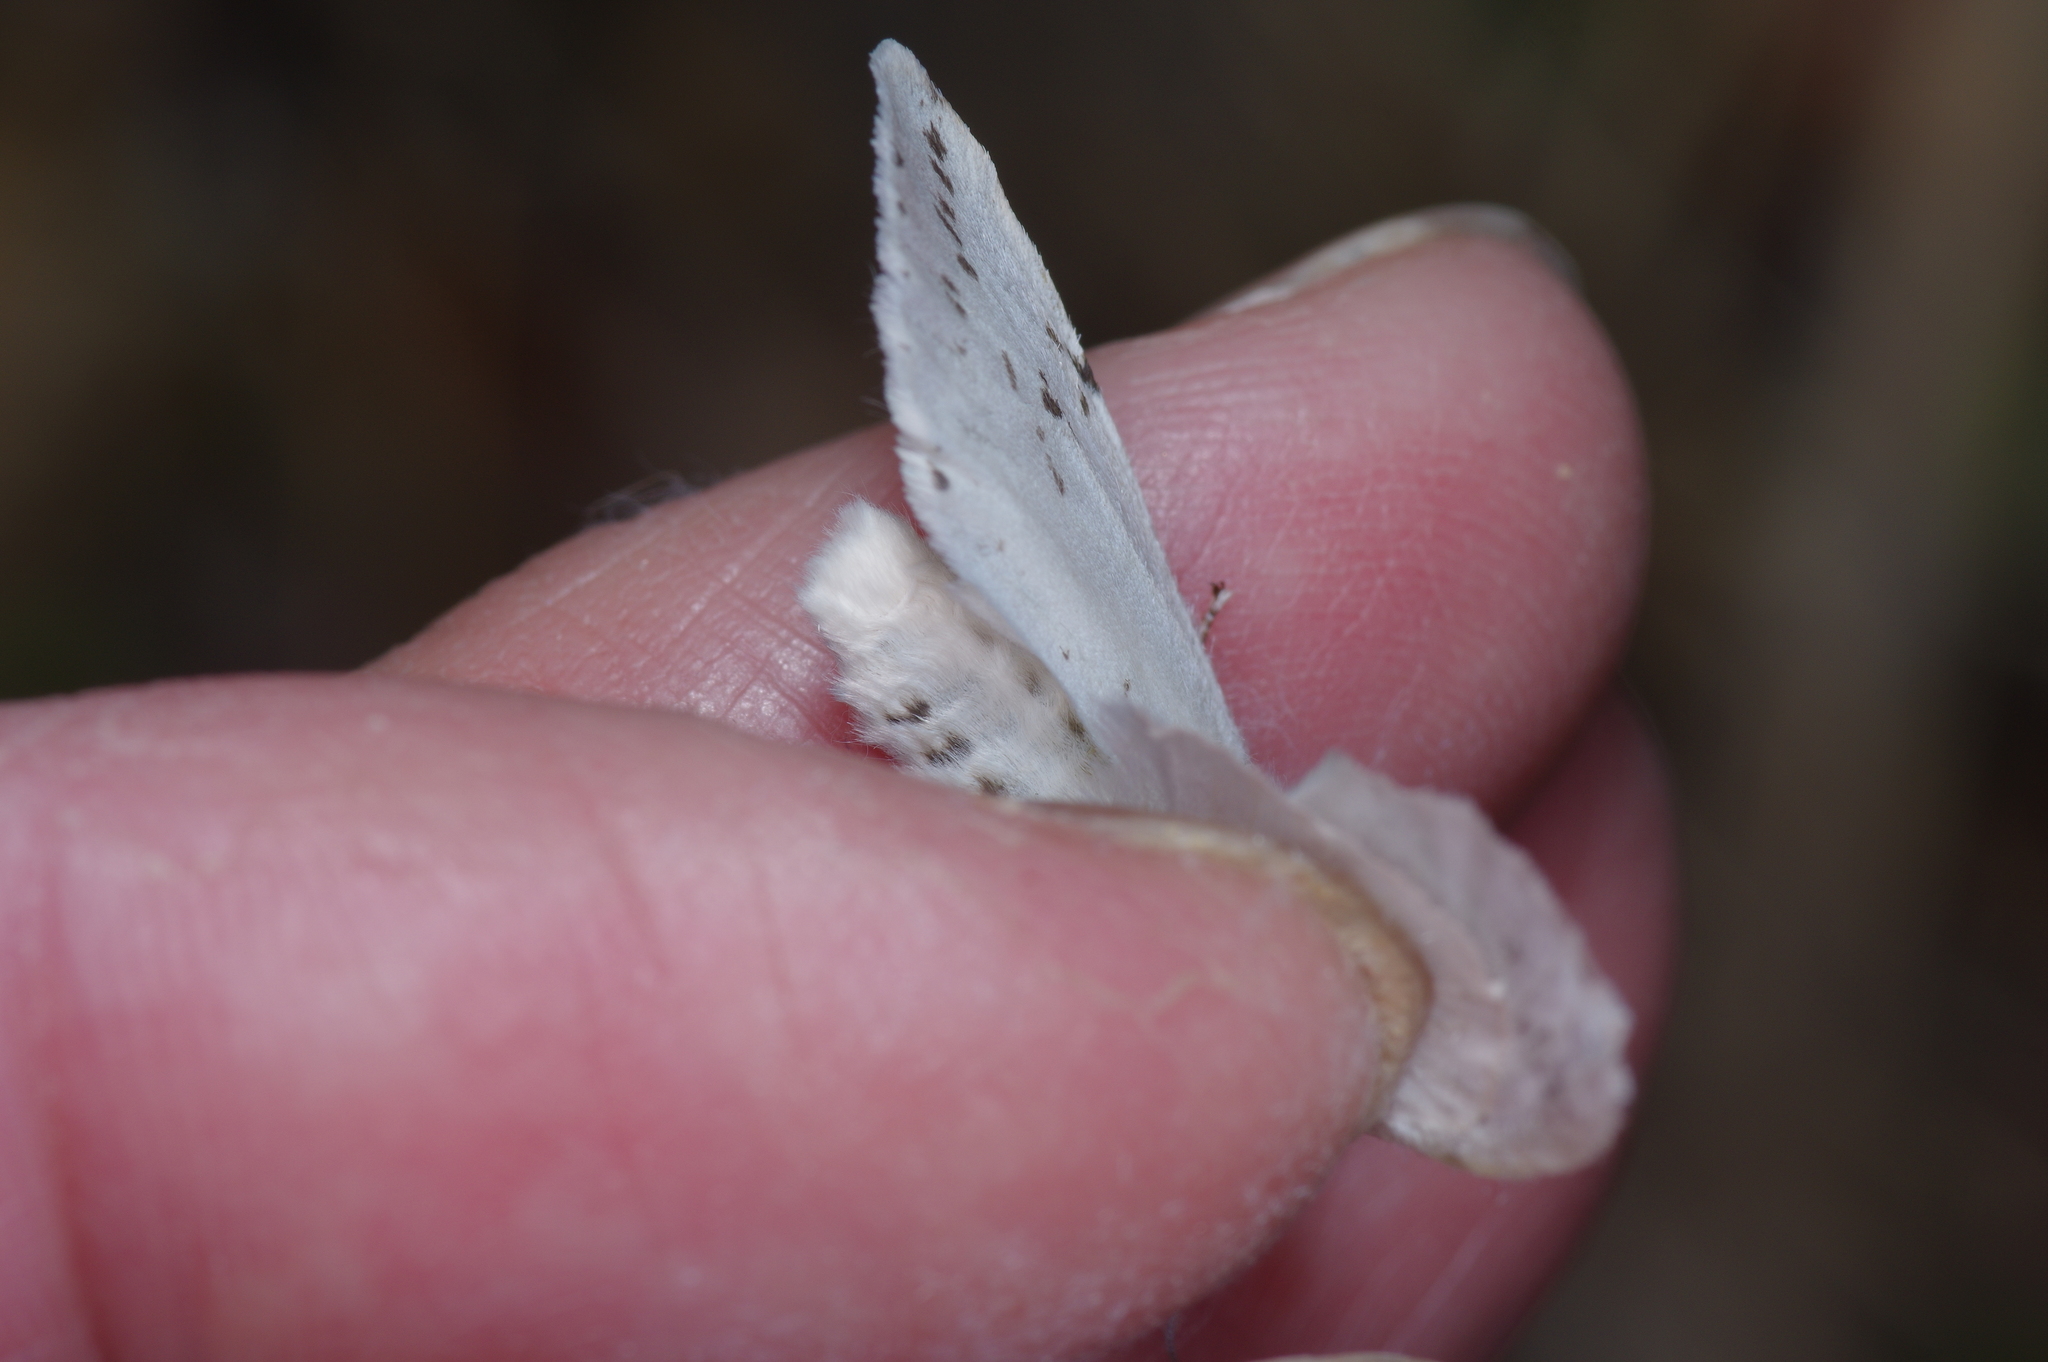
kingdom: Animalia
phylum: Arthropoda
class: Insecta
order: Lepidoptera
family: Erebidae
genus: Hyphantria
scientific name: Hyphantria cunea
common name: American white moth
